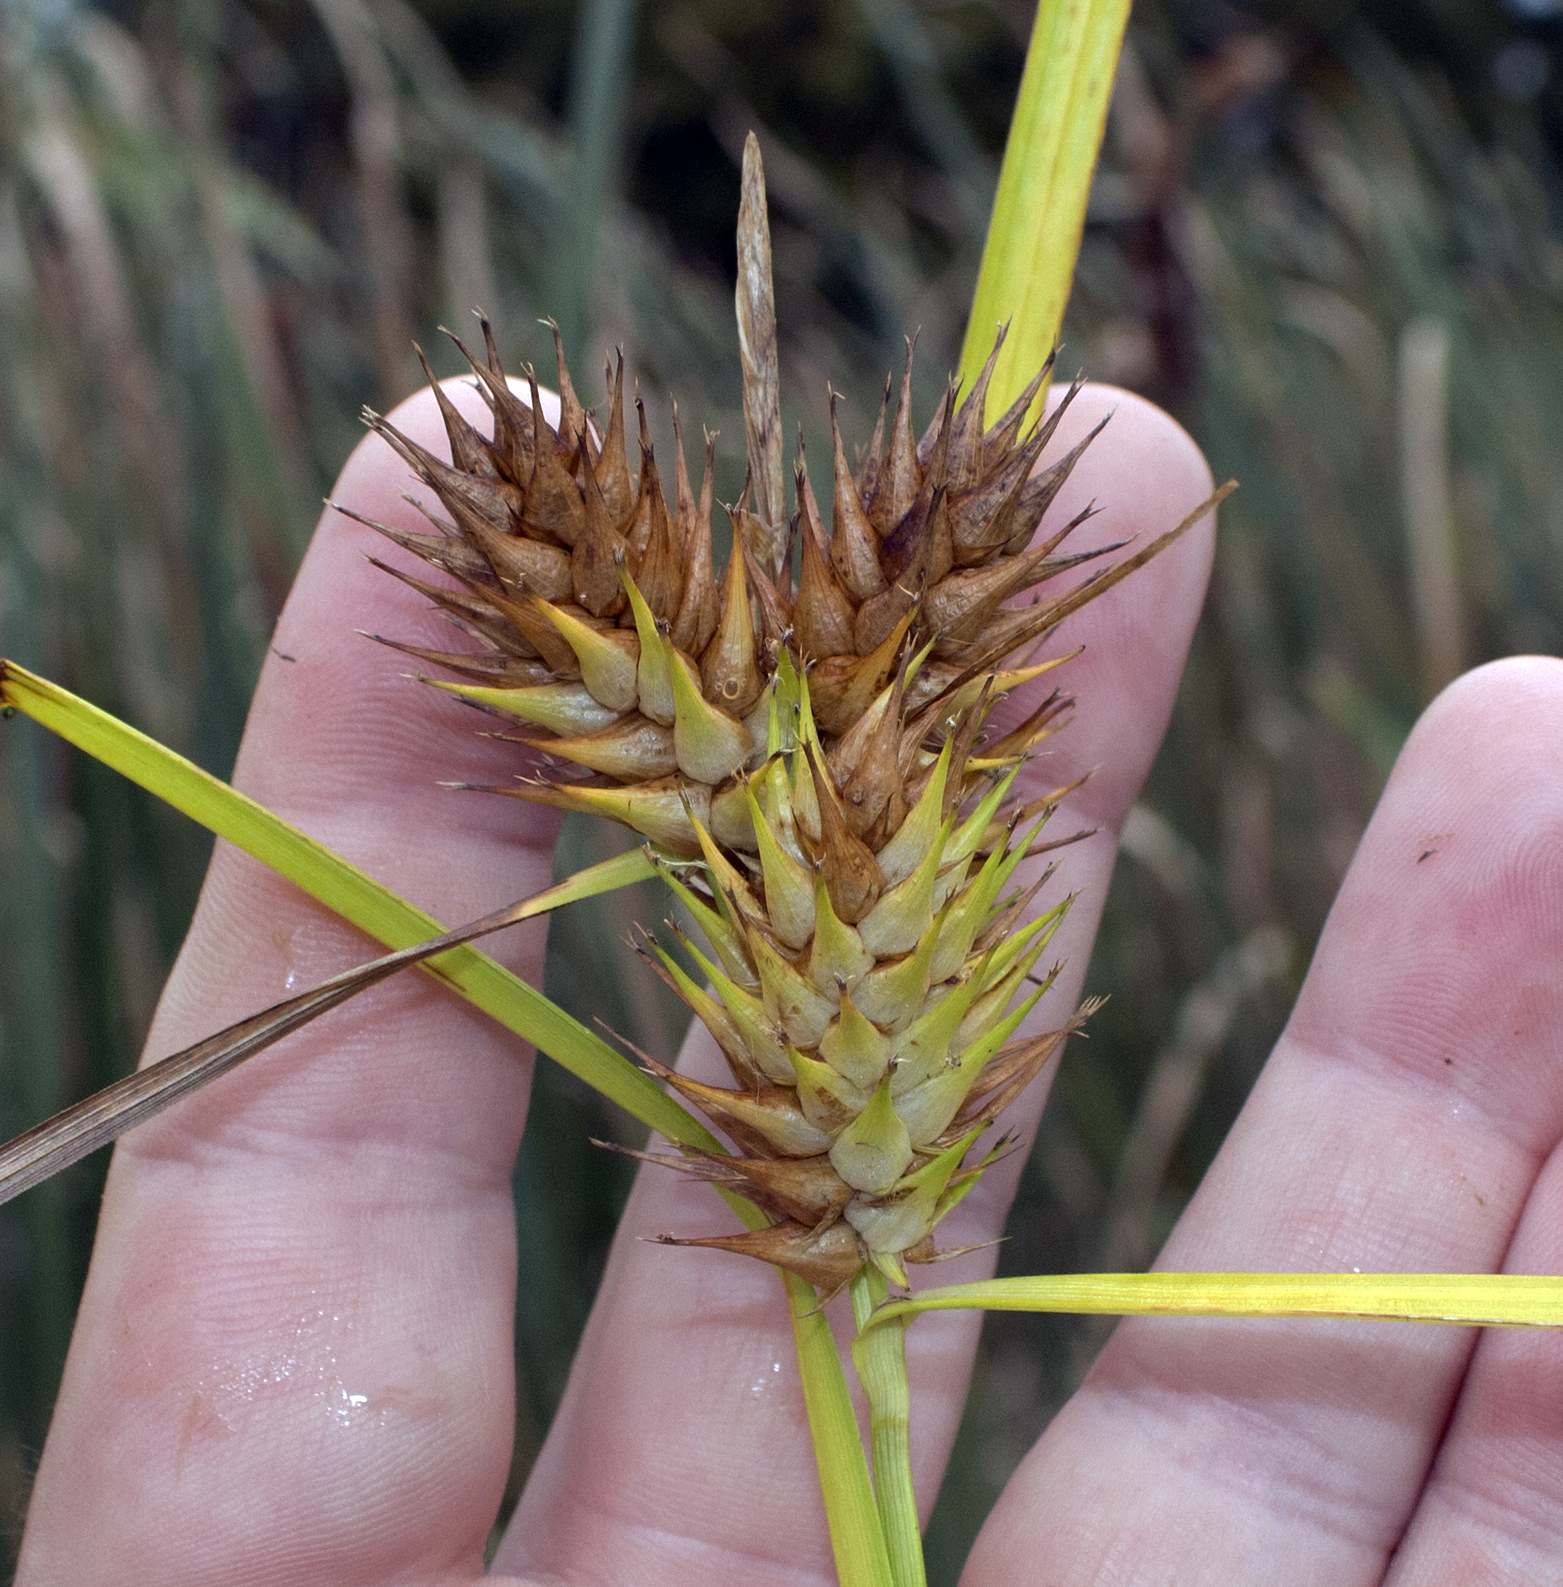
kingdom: Plantae
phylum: Tracheophyta
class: Liliopsida
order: Poales
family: Cyperaceae
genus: Carex
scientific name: Carex lupulina
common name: Hop sedge
